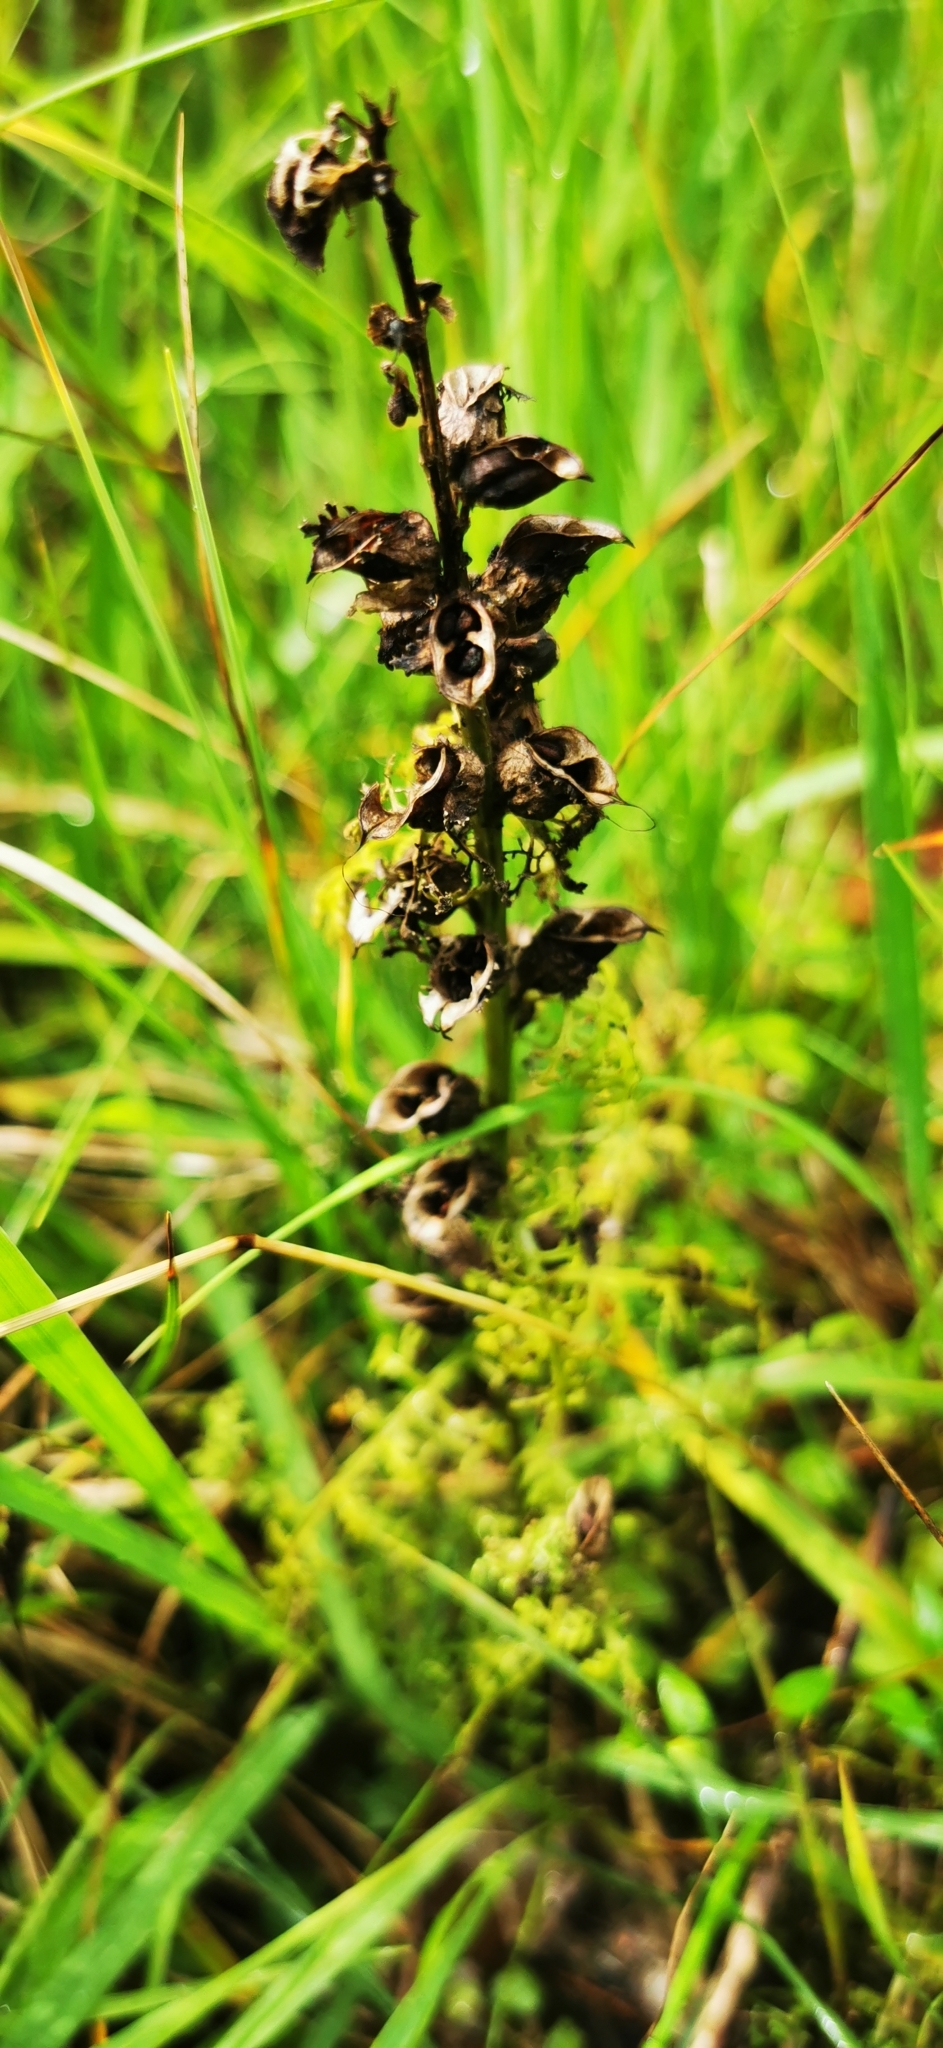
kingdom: Plantae
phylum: Tracheophyta
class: Magnoliopsida
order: Lamiales
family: Orobanchaceae
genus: Pedicularis
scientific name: Pedicularis palustris
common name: Marsh lousewort
